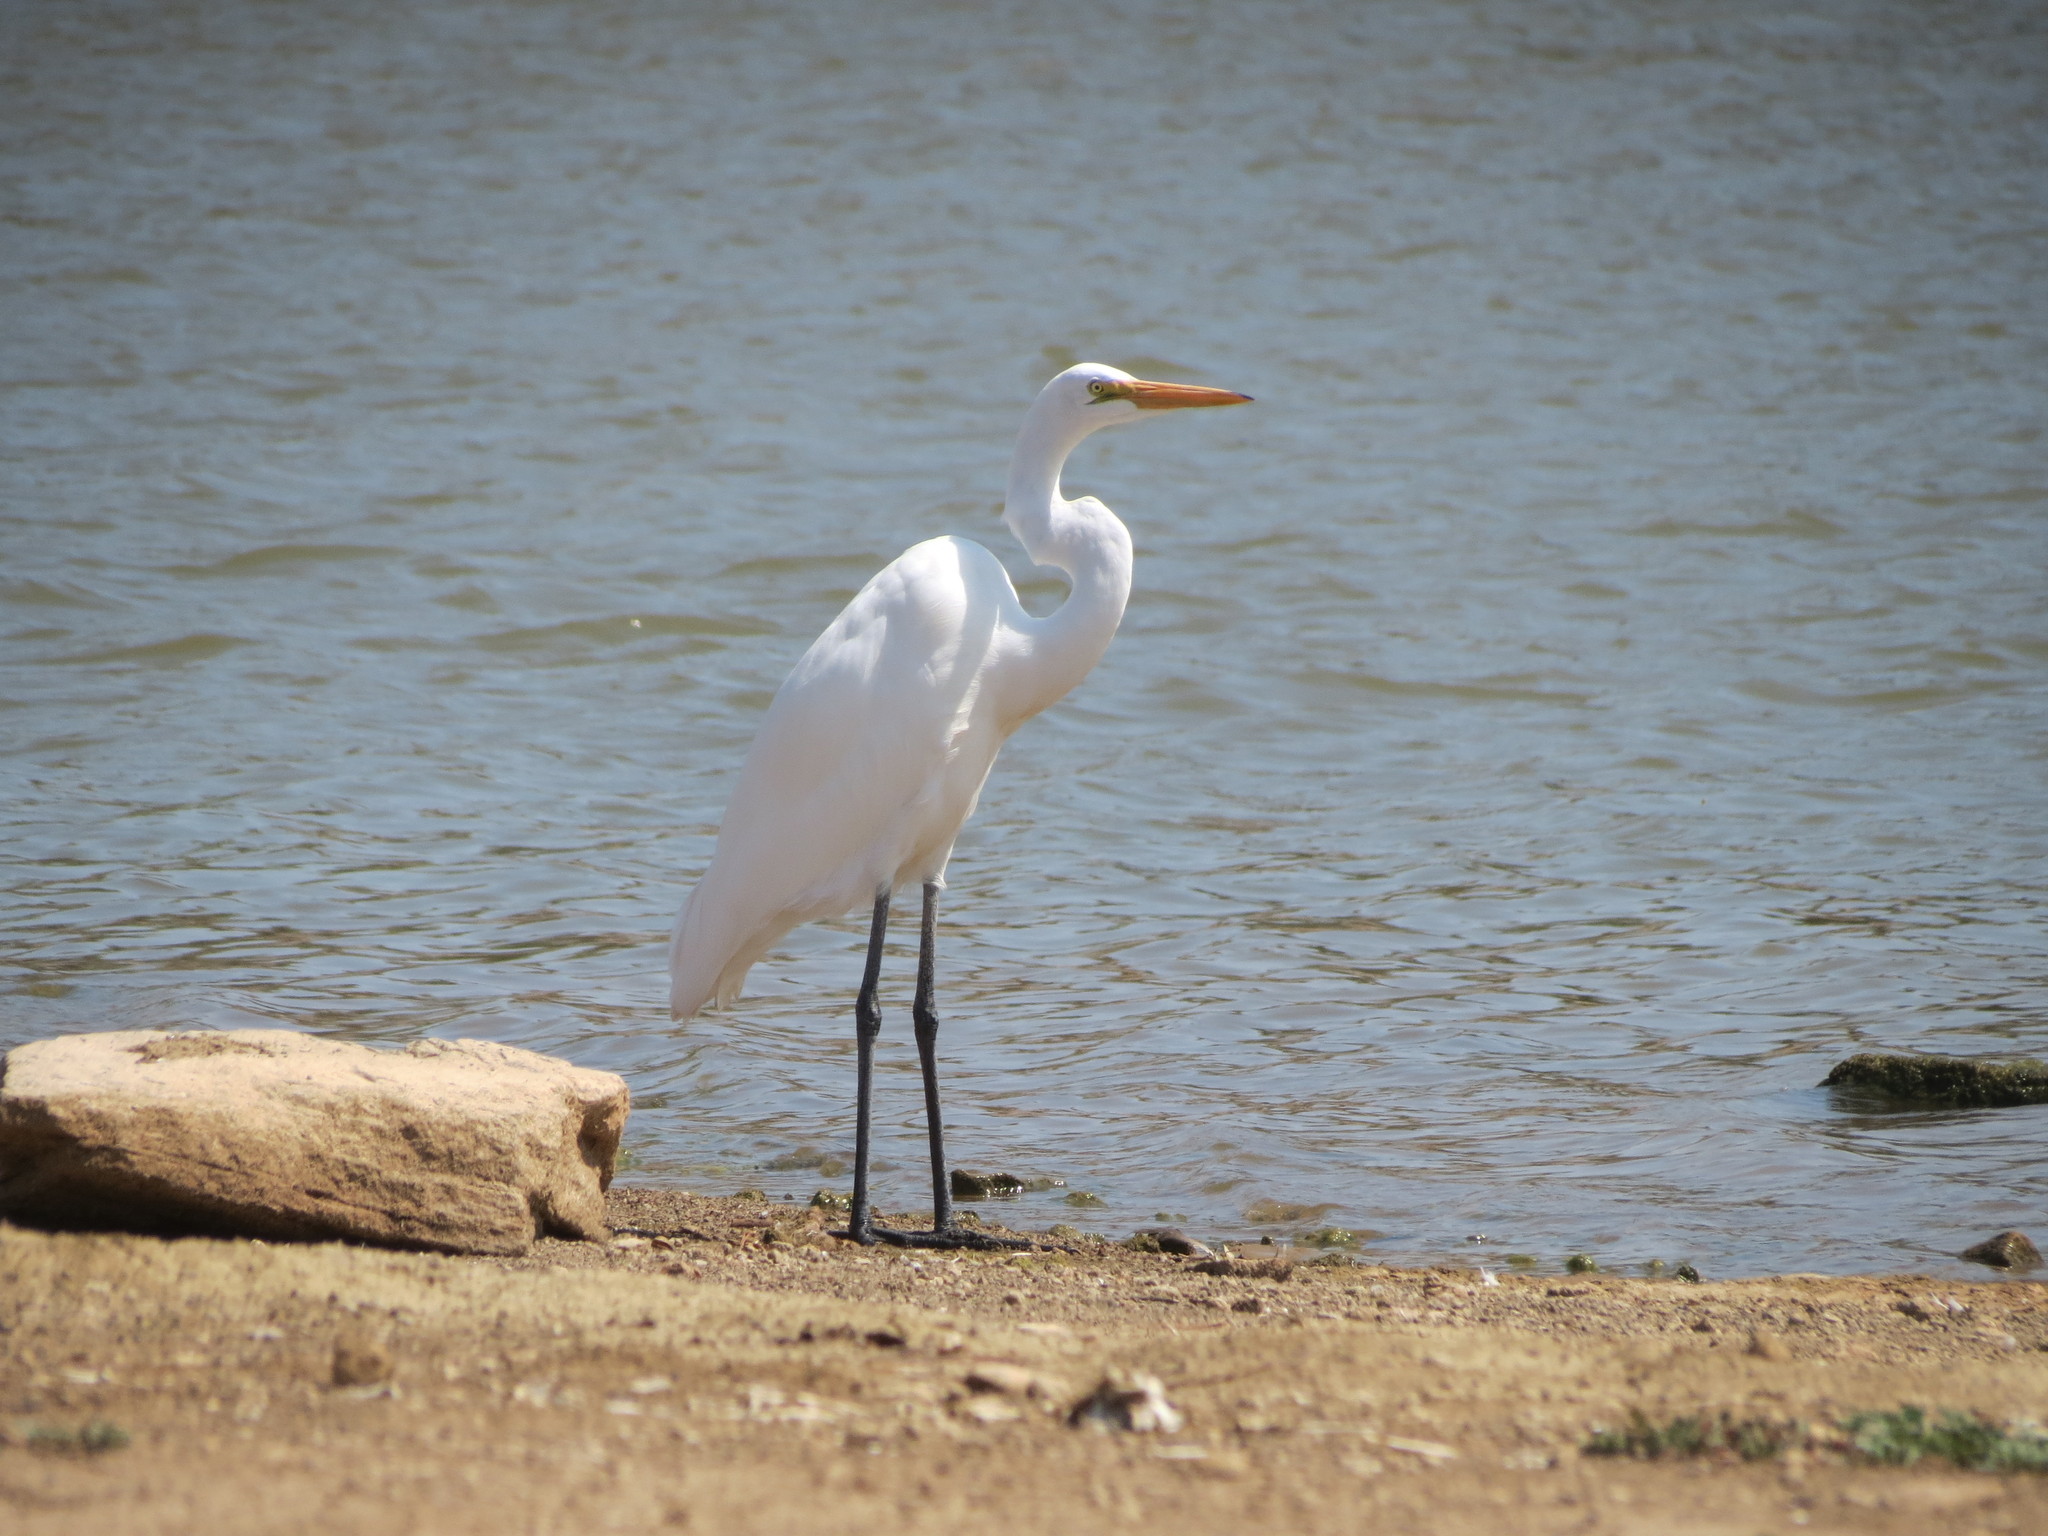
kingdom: Animalia
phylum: Chordata
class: Aves
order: Pelecaniformes
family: Ardeidae
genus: Ardea
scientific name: Ardea alba
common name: Great egret
